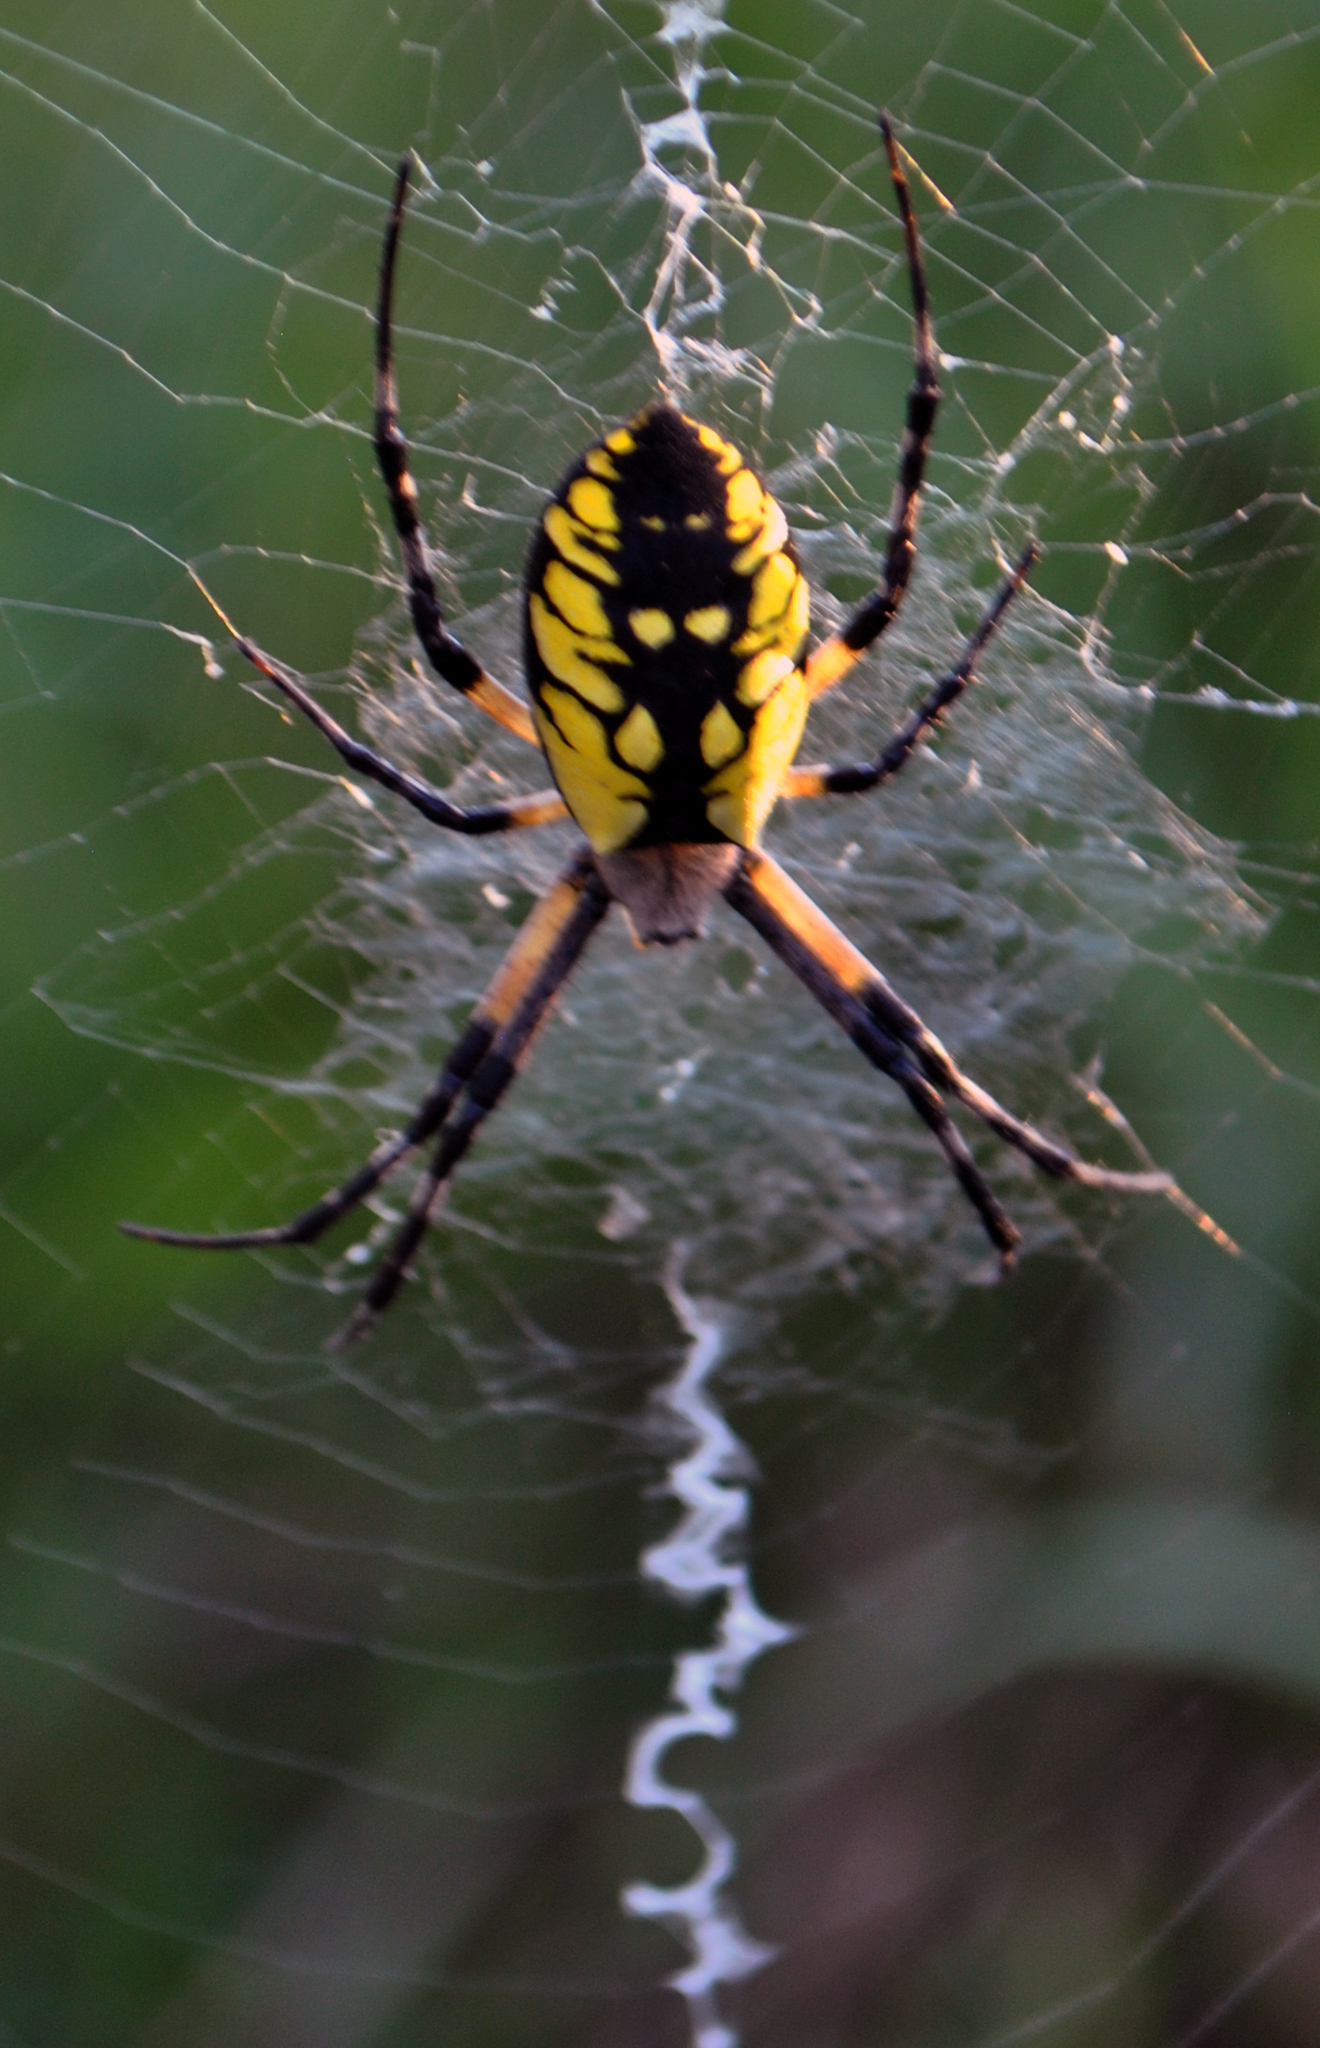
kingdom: Animalia
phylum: Arthropoda
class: Arachnida
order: Araneae
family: Araneidae
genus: Argiope
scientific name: Argiope aurantia
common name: Orb weavers
